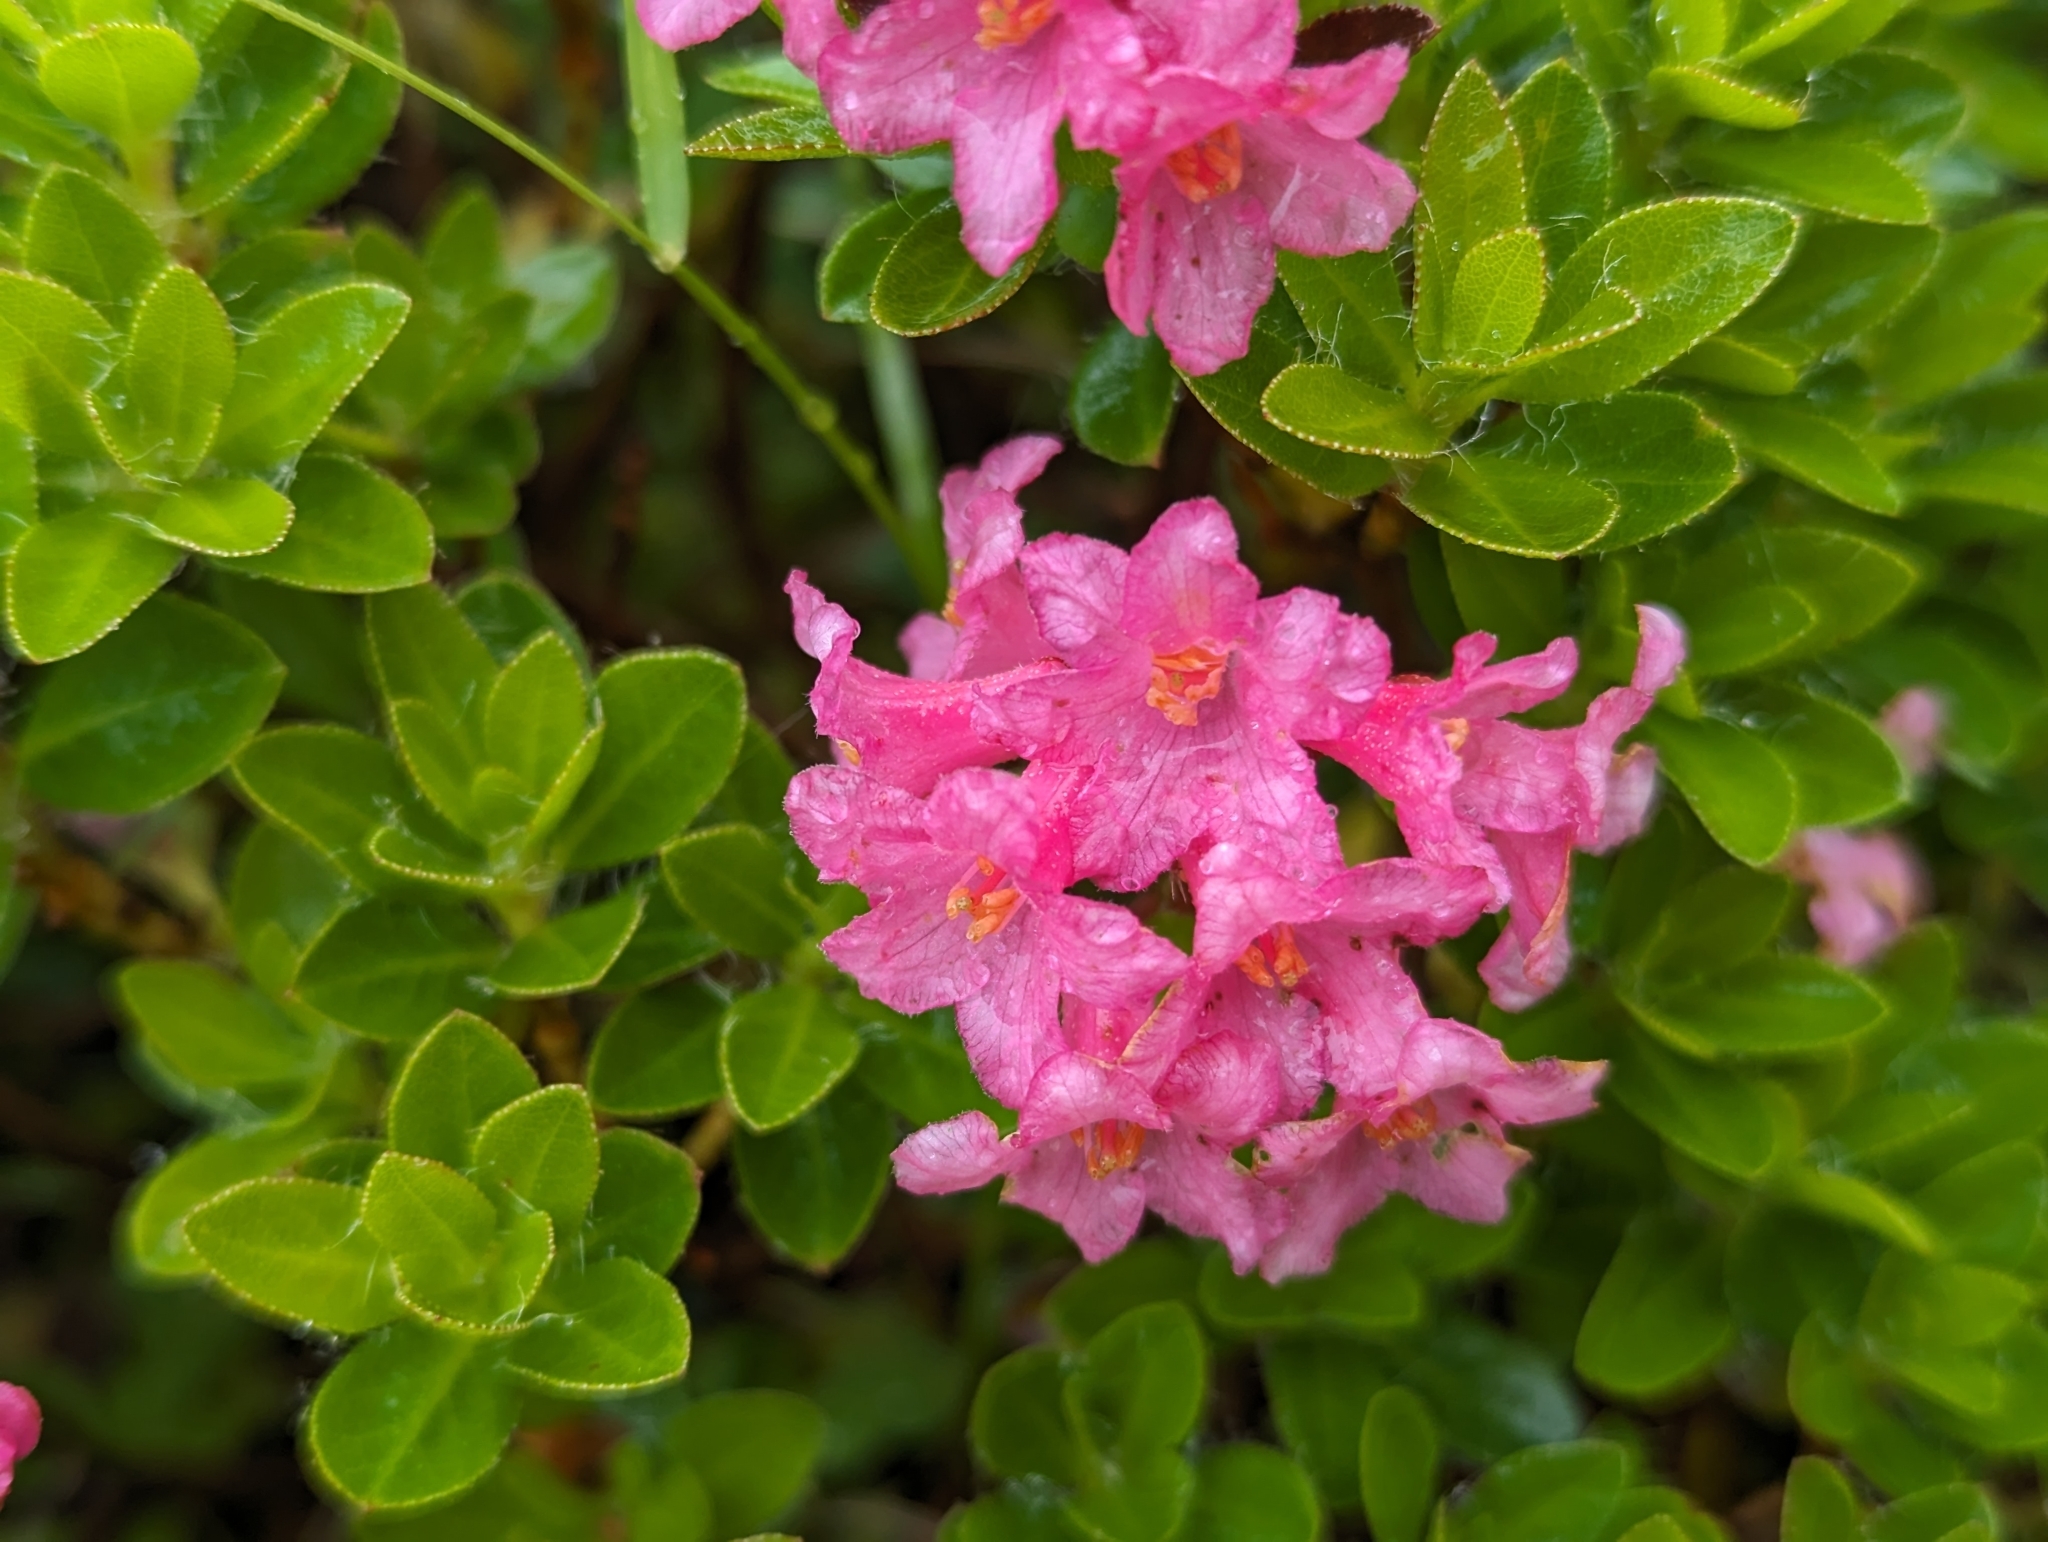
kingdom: Plantae
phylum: Tracheophyta
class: Magnoliopsida
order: Ericales
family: Ericaceae
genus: Rhododendron
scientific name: Rhododendron hirsutum
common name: Hairy alpenrose
